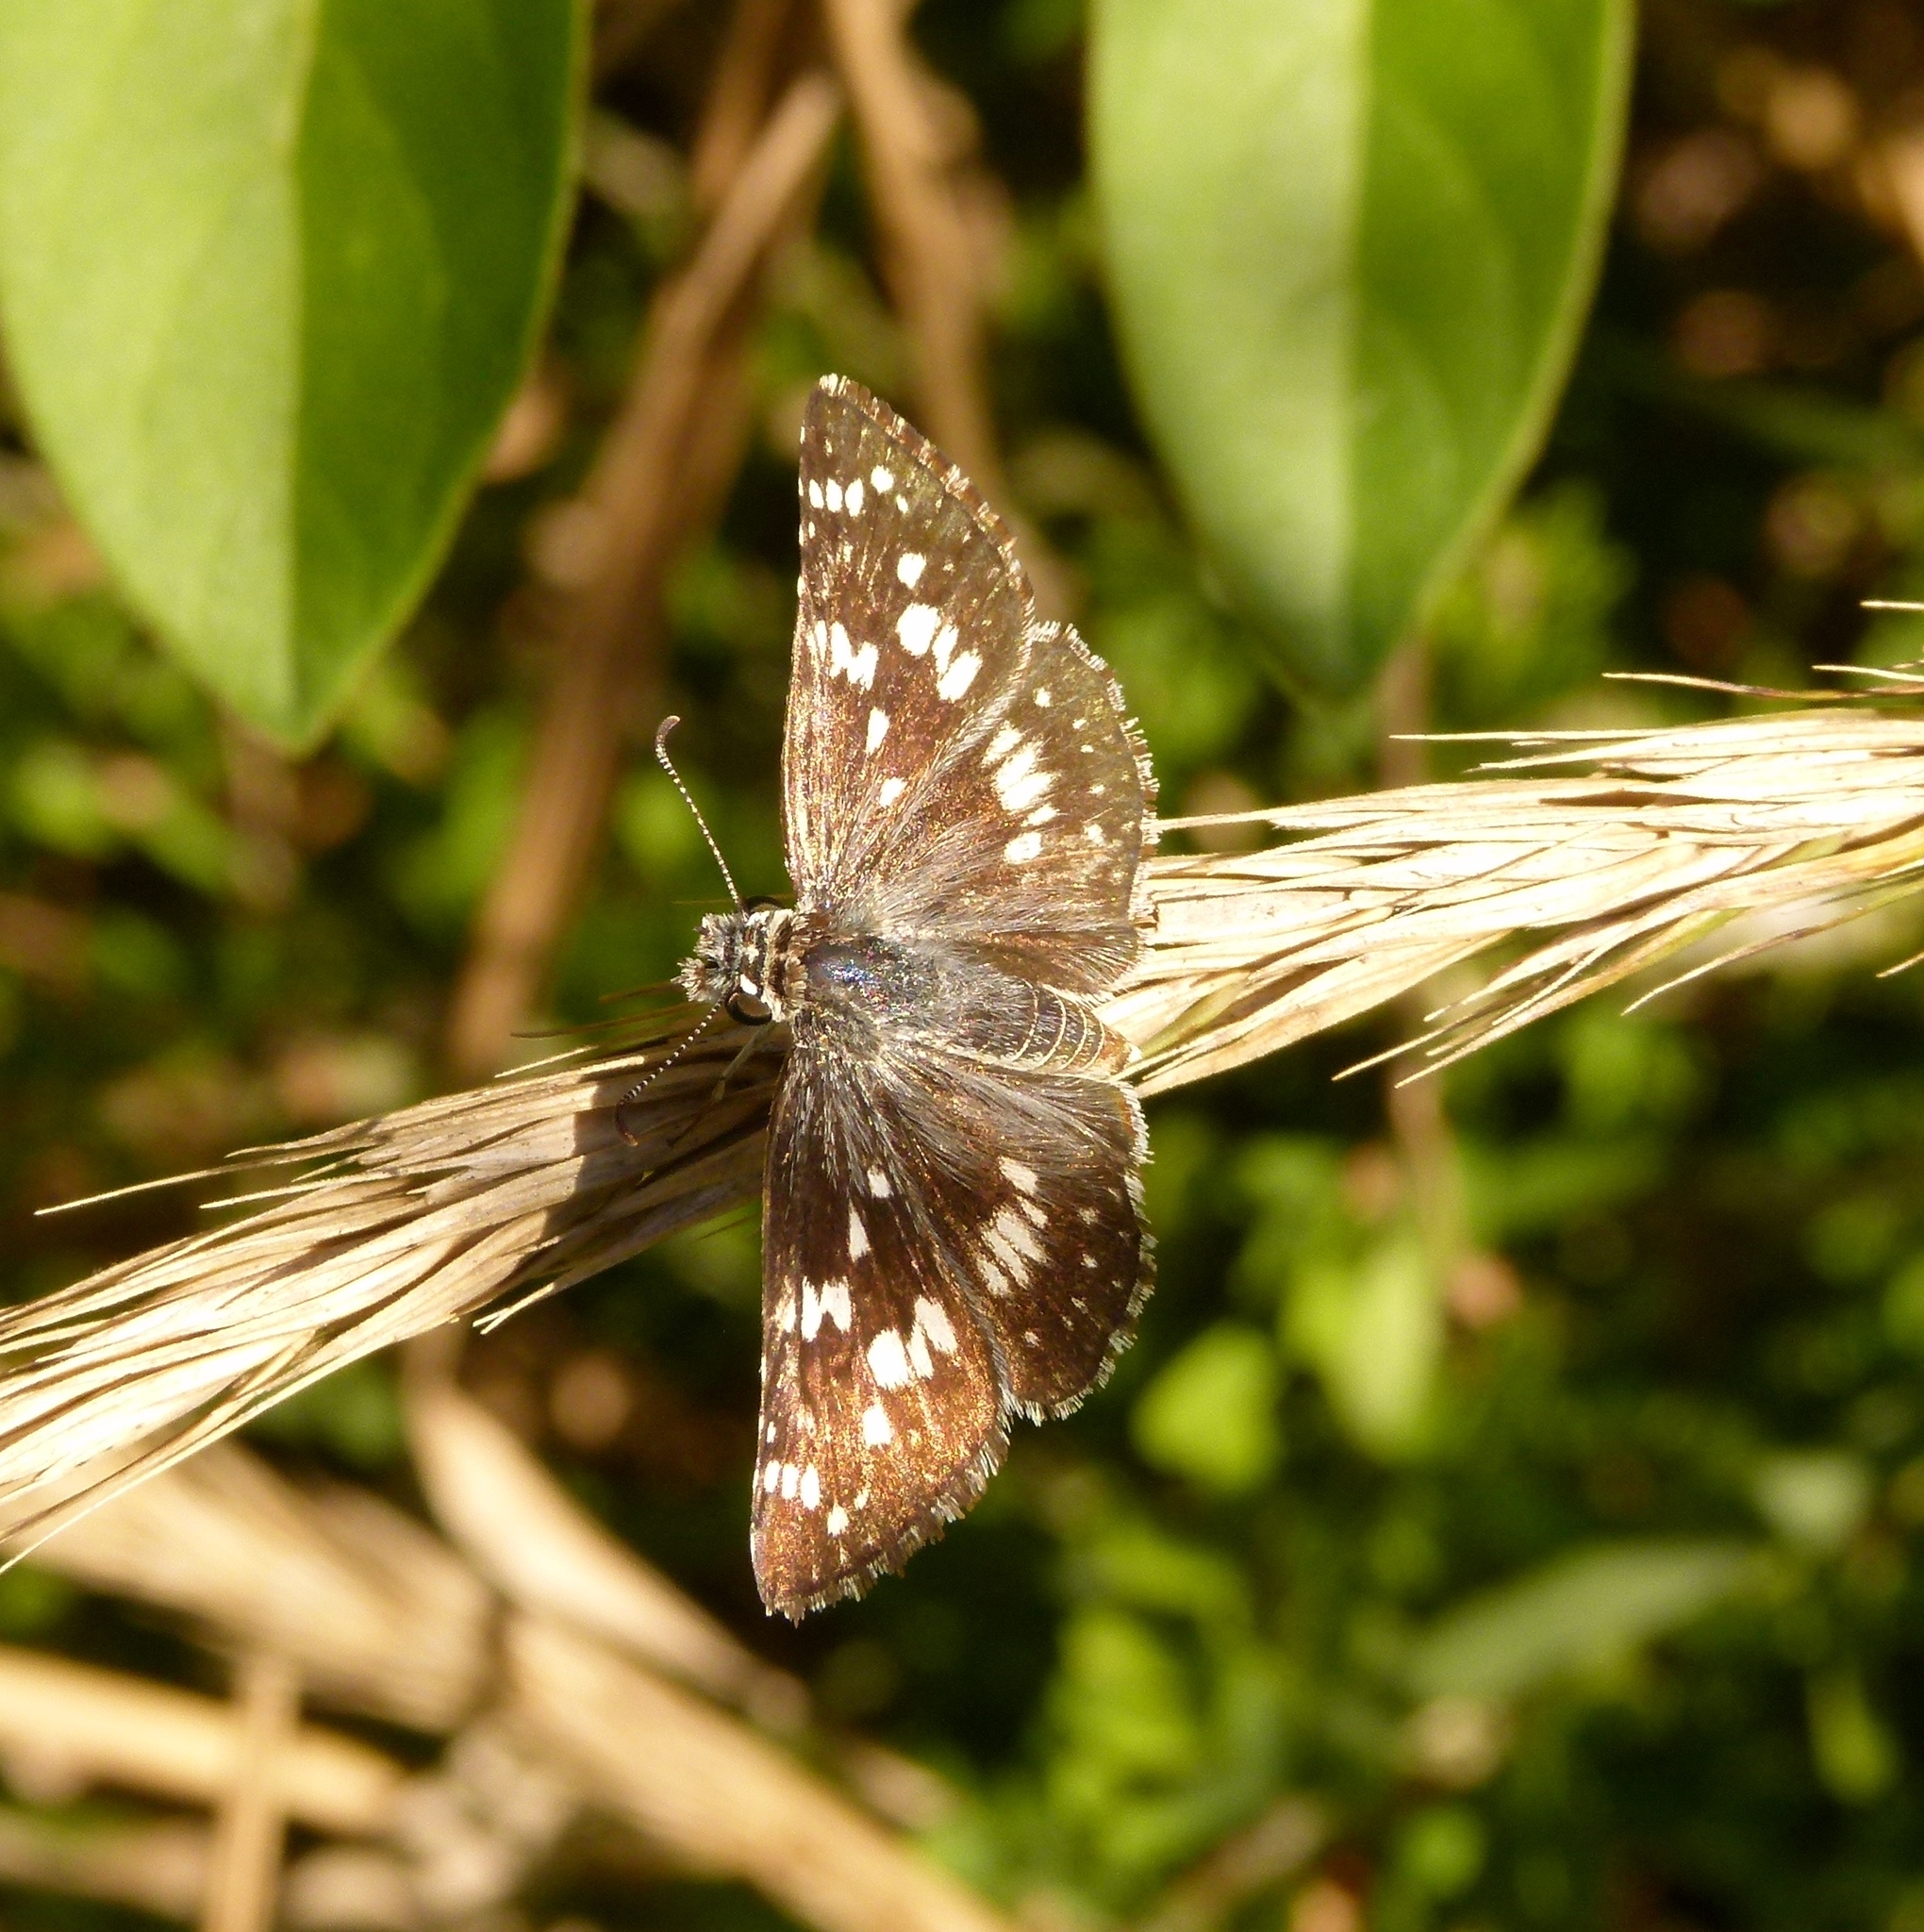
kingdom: Animalia
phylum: Arthropoda
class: Insecta
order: Lepidoptera
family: Hesperiidae
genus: Burnsius
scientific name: Burnsius communis
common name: Common checkered-skipper
